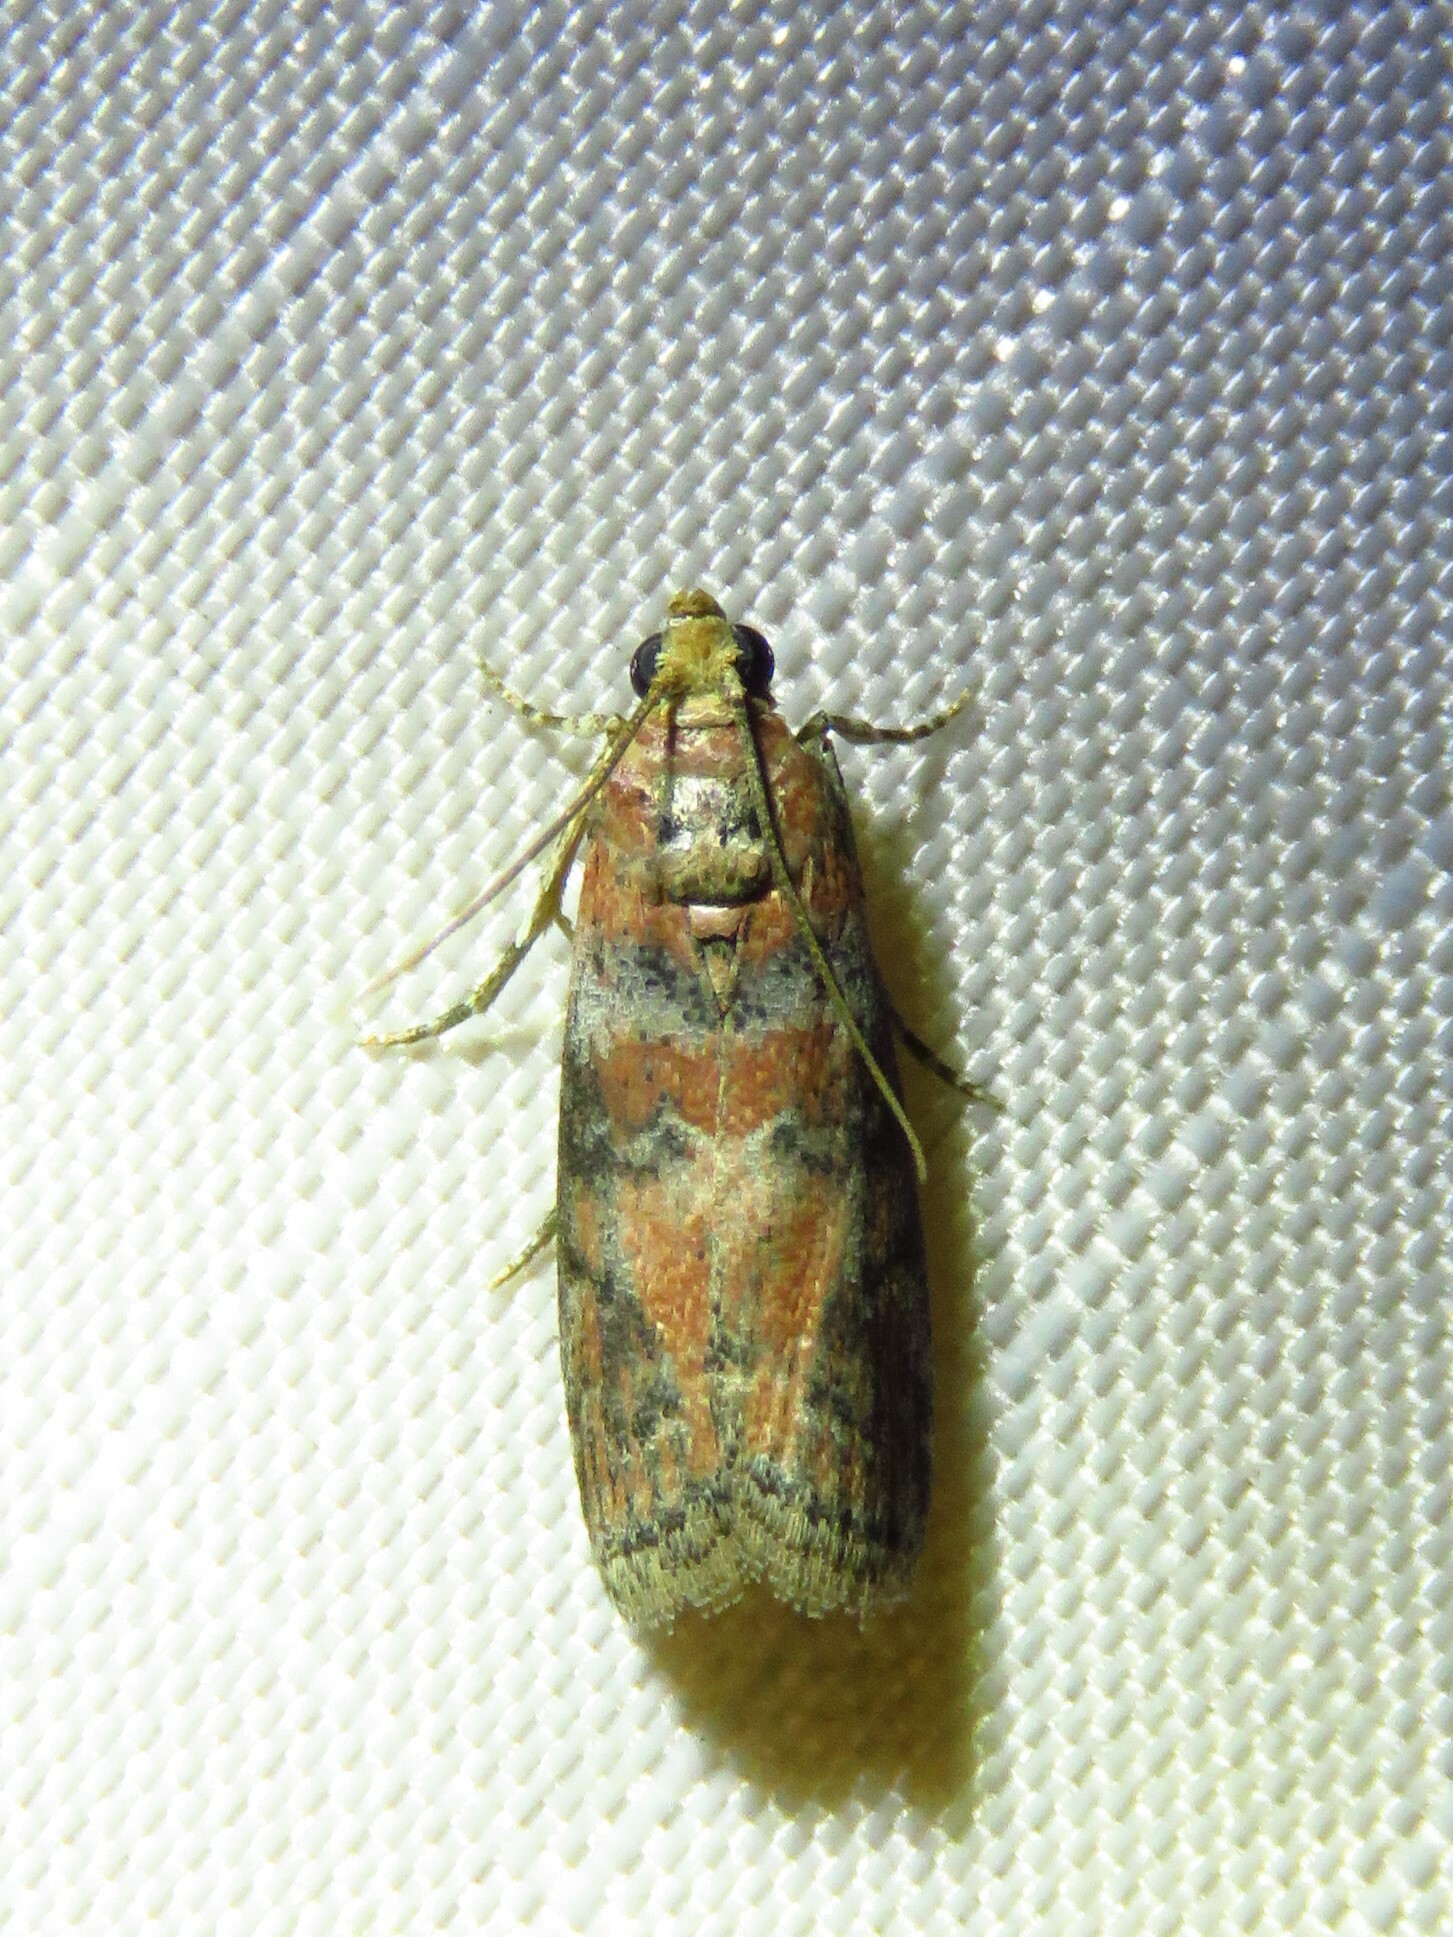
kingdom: Animalia
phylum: Arthropoda
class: Insecta
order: Lepidoptera
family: Pyralidae
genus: Sciota
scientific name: Sciota
